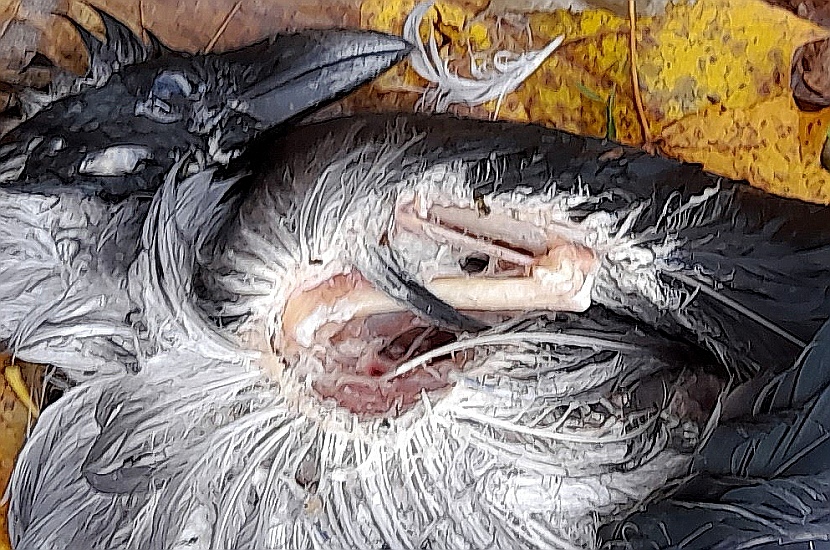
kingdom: Animalia
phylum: Chordata
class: Aves
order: Passeriformes
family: Corvidae
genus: Corvus
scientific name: Corvus cornix
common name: Hooded crow
